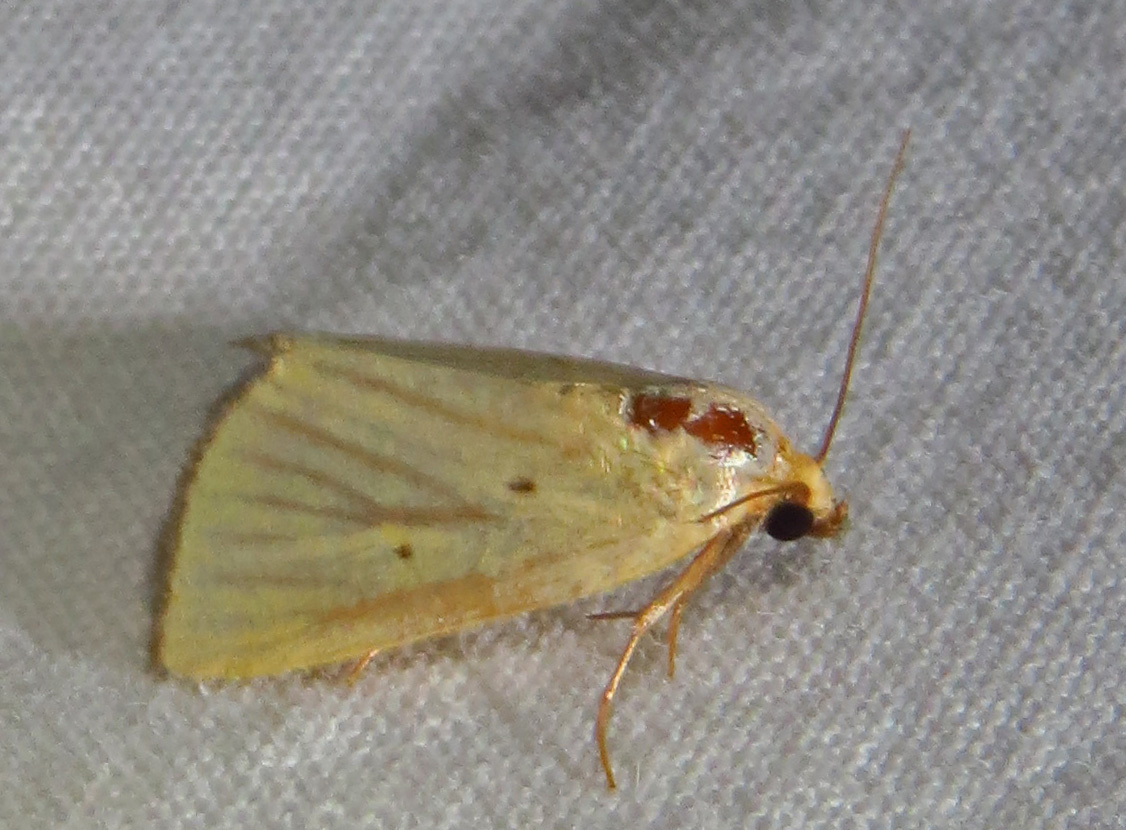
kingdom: Animalia
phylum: Arthropoda
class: Insecta
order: Lepidoptera
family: Noctuidae
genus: Marimatha
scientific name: Marimatha nigrofimbria
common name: Black-bordered lemon moth
